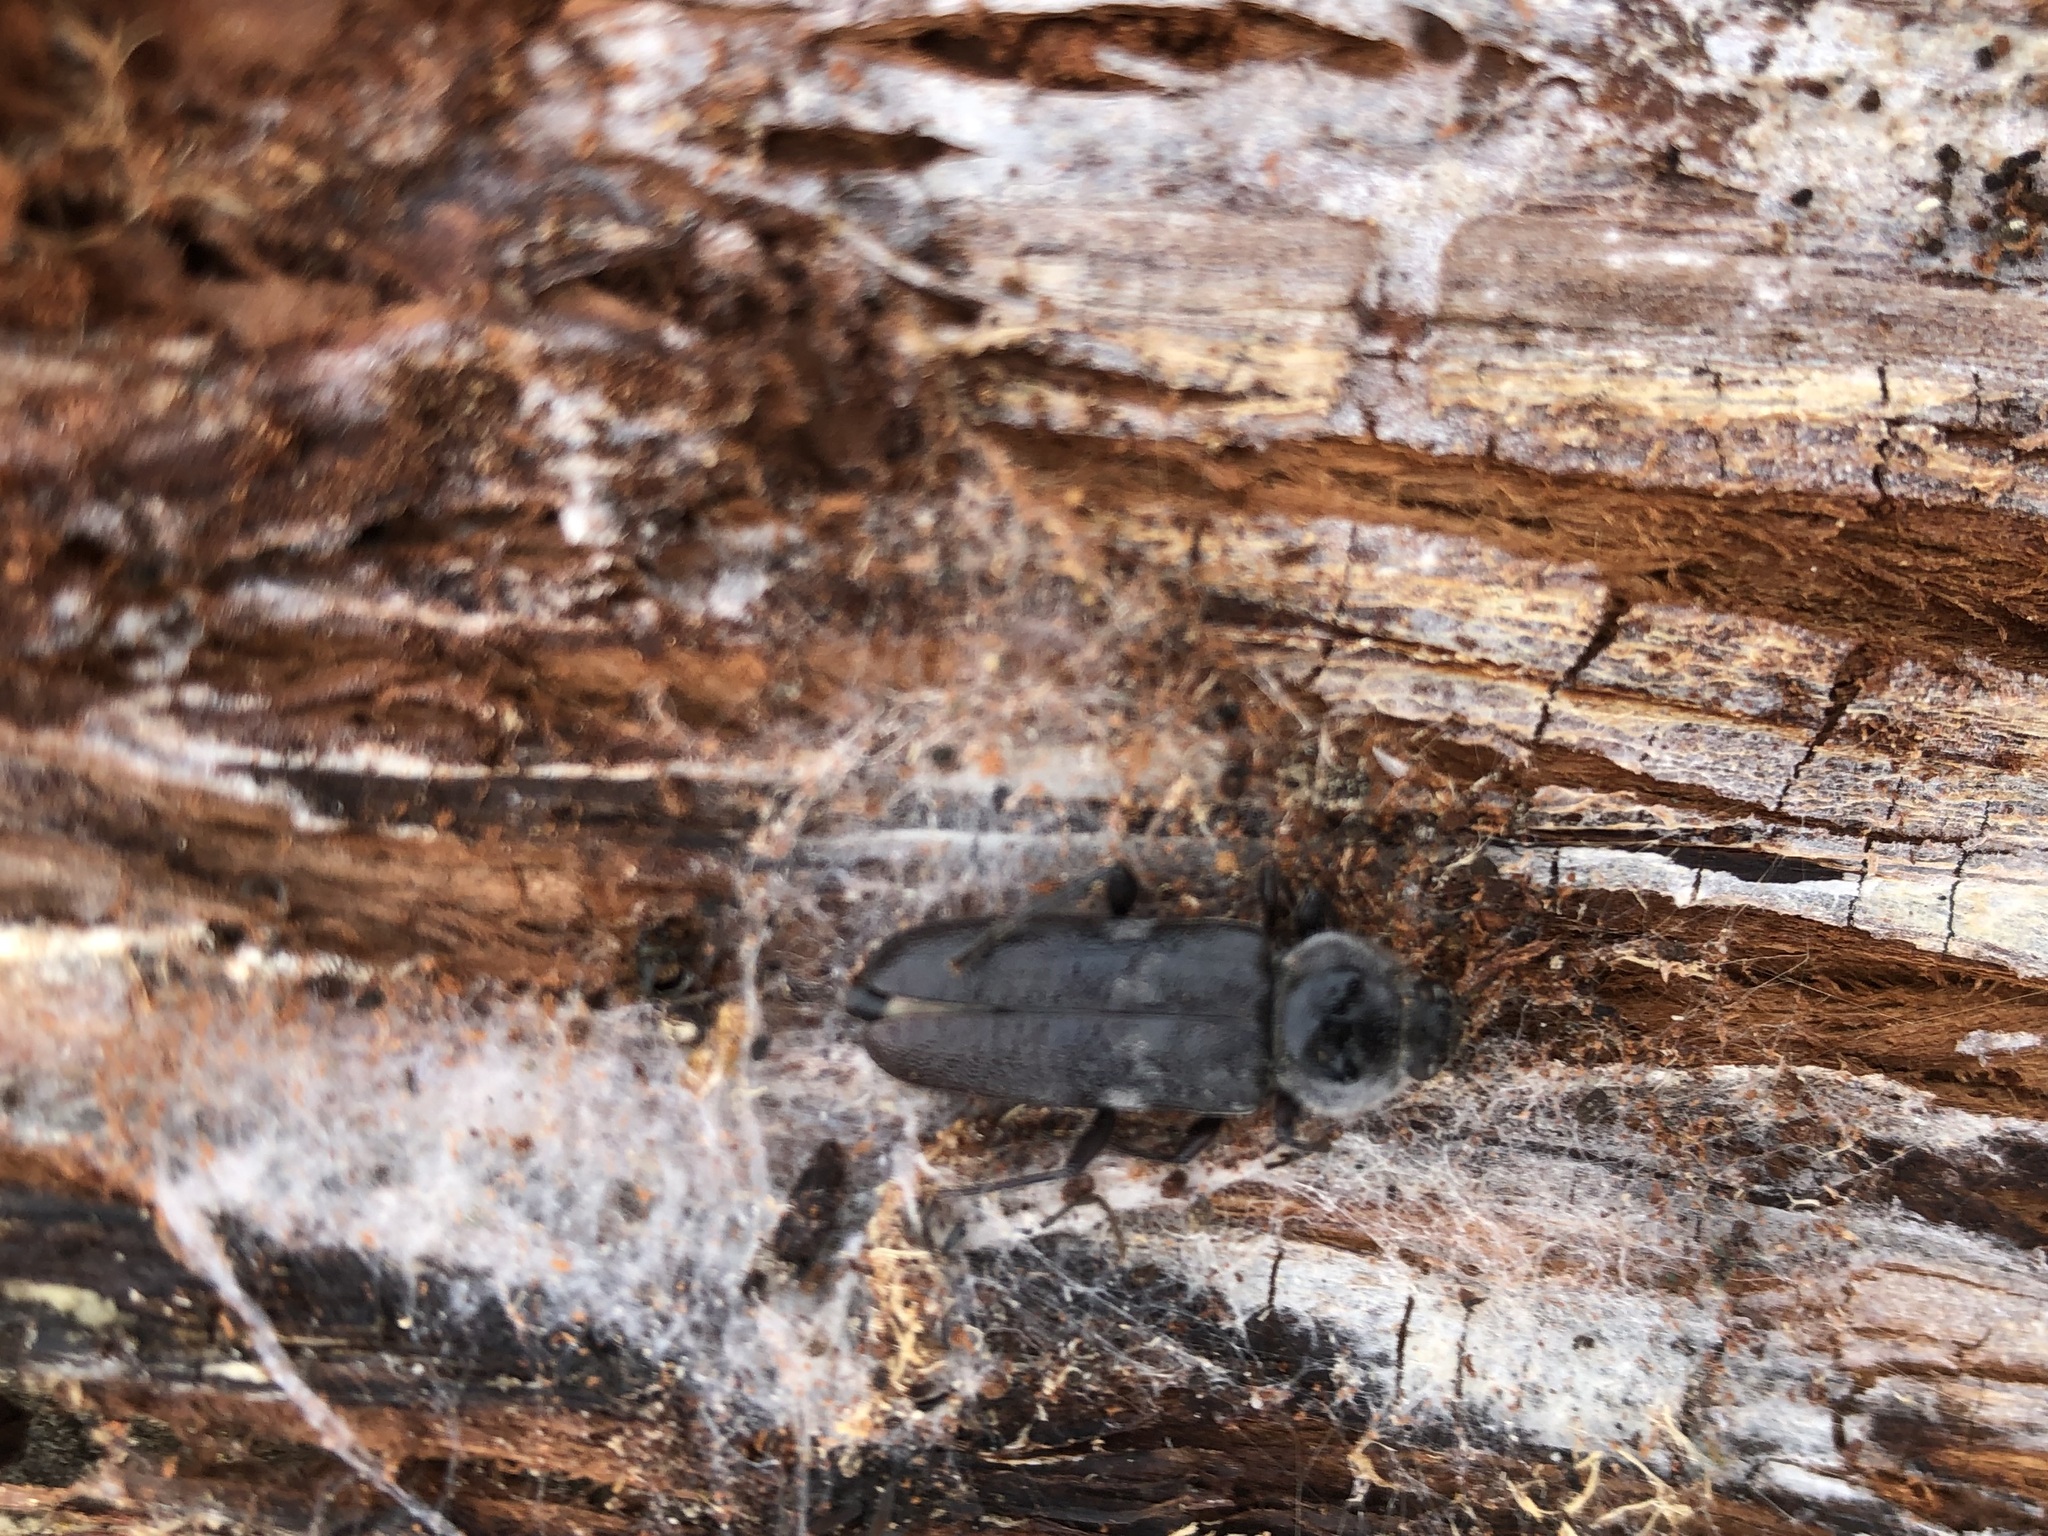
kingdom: Animalia
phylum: Arthropoda
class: Insecta
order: Coleoptera
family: Cerambycidae
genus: Hylotrupes
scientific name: Hylotrupes bajulus
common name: Old house borer
